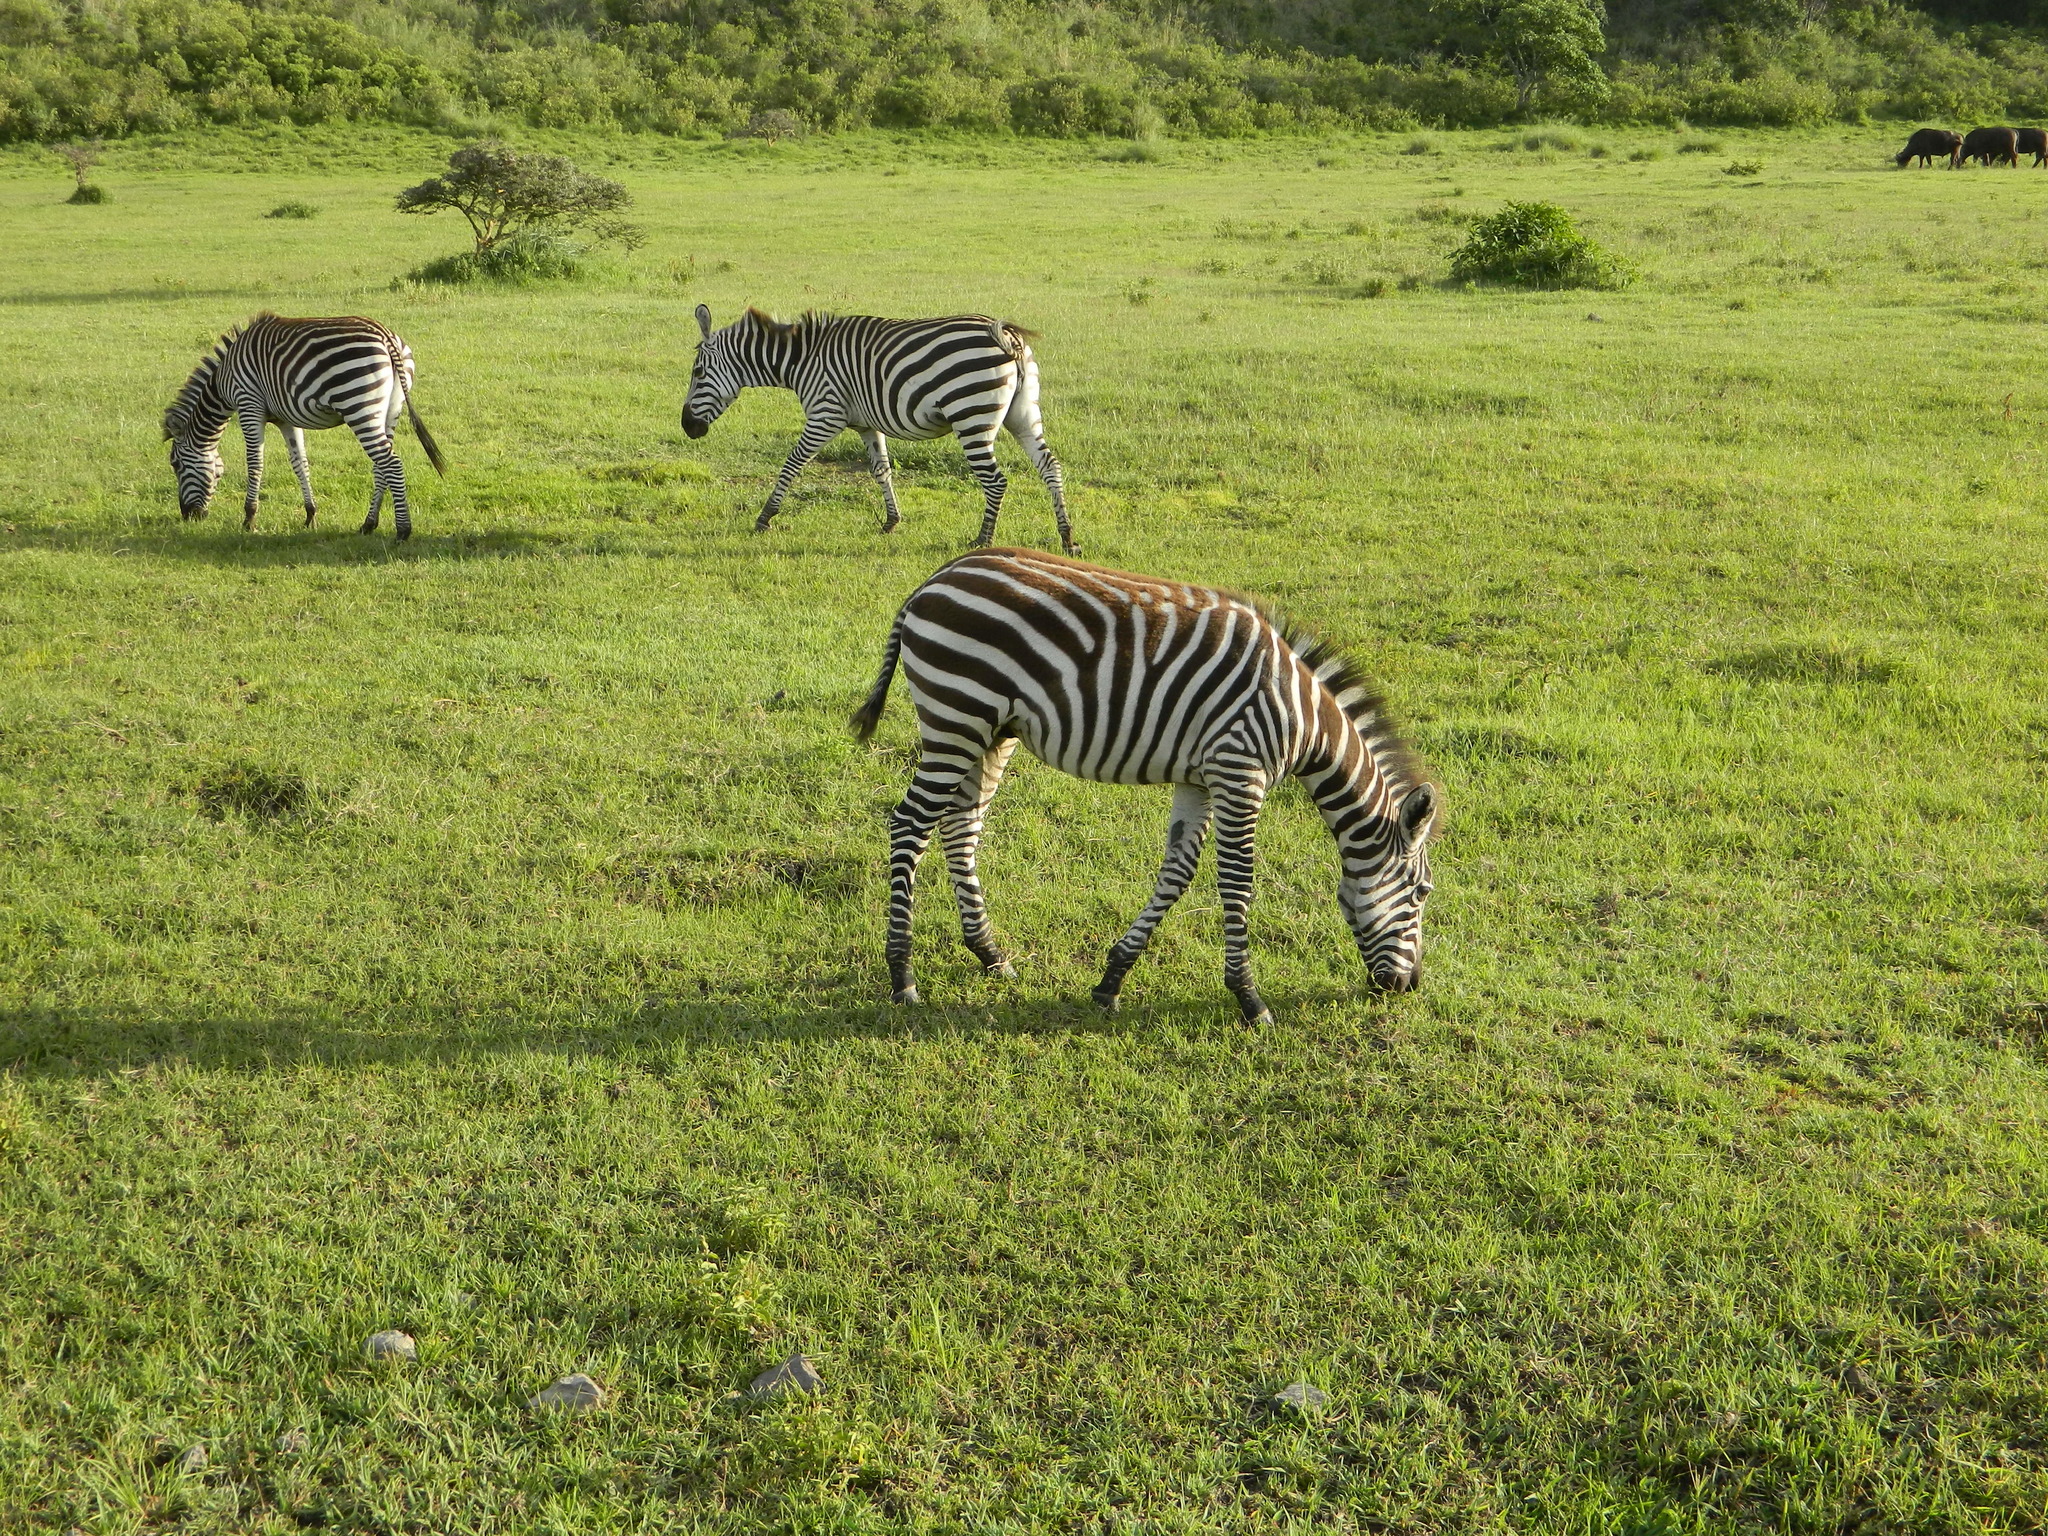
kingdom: Animalia
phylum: Chordata
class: Mammalia
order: Perissodactyla
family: Equidae
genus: Equus
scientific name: Equus quagga
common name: Plains zebra
